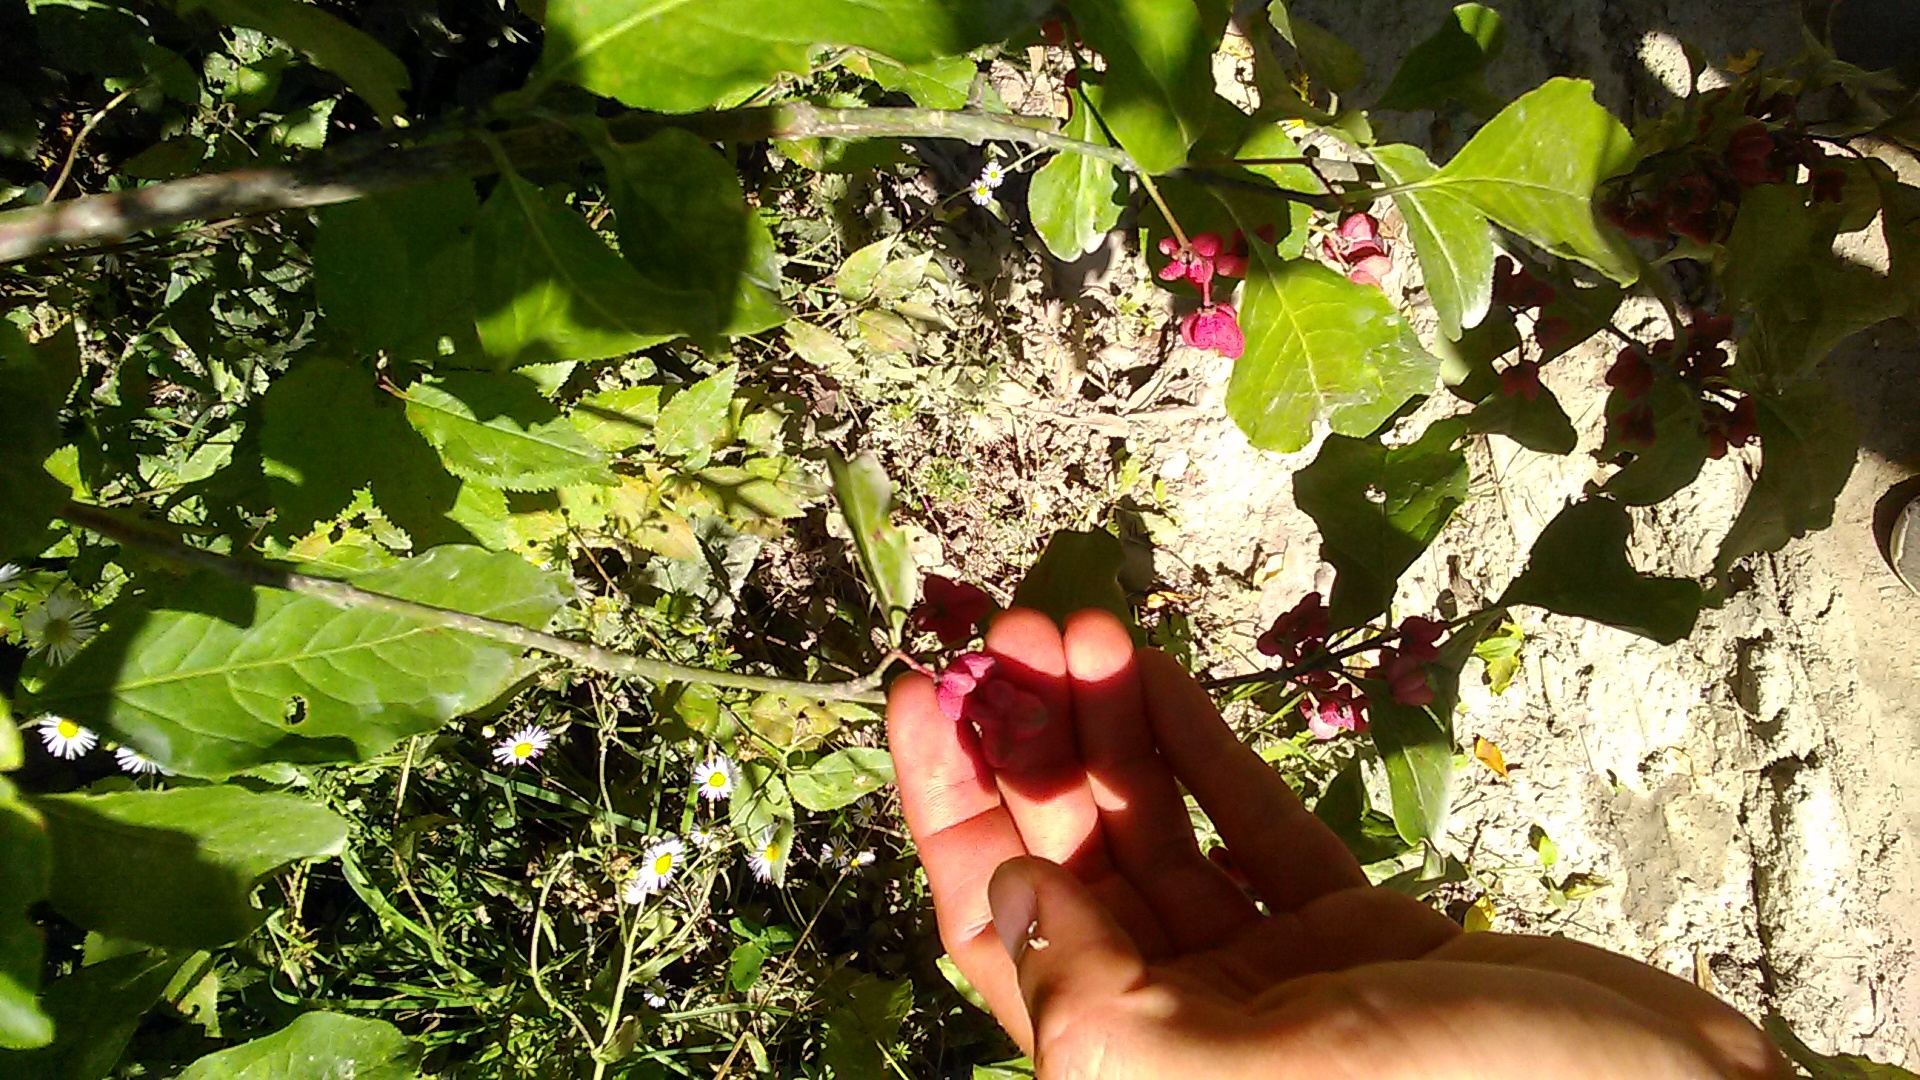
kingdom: Plantae
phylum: Tracheophyta
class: Magnoliopsida
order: Celastrales
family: Celastraceae
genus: Euonymus
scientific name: Euonymus europaeus
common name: Spindle
